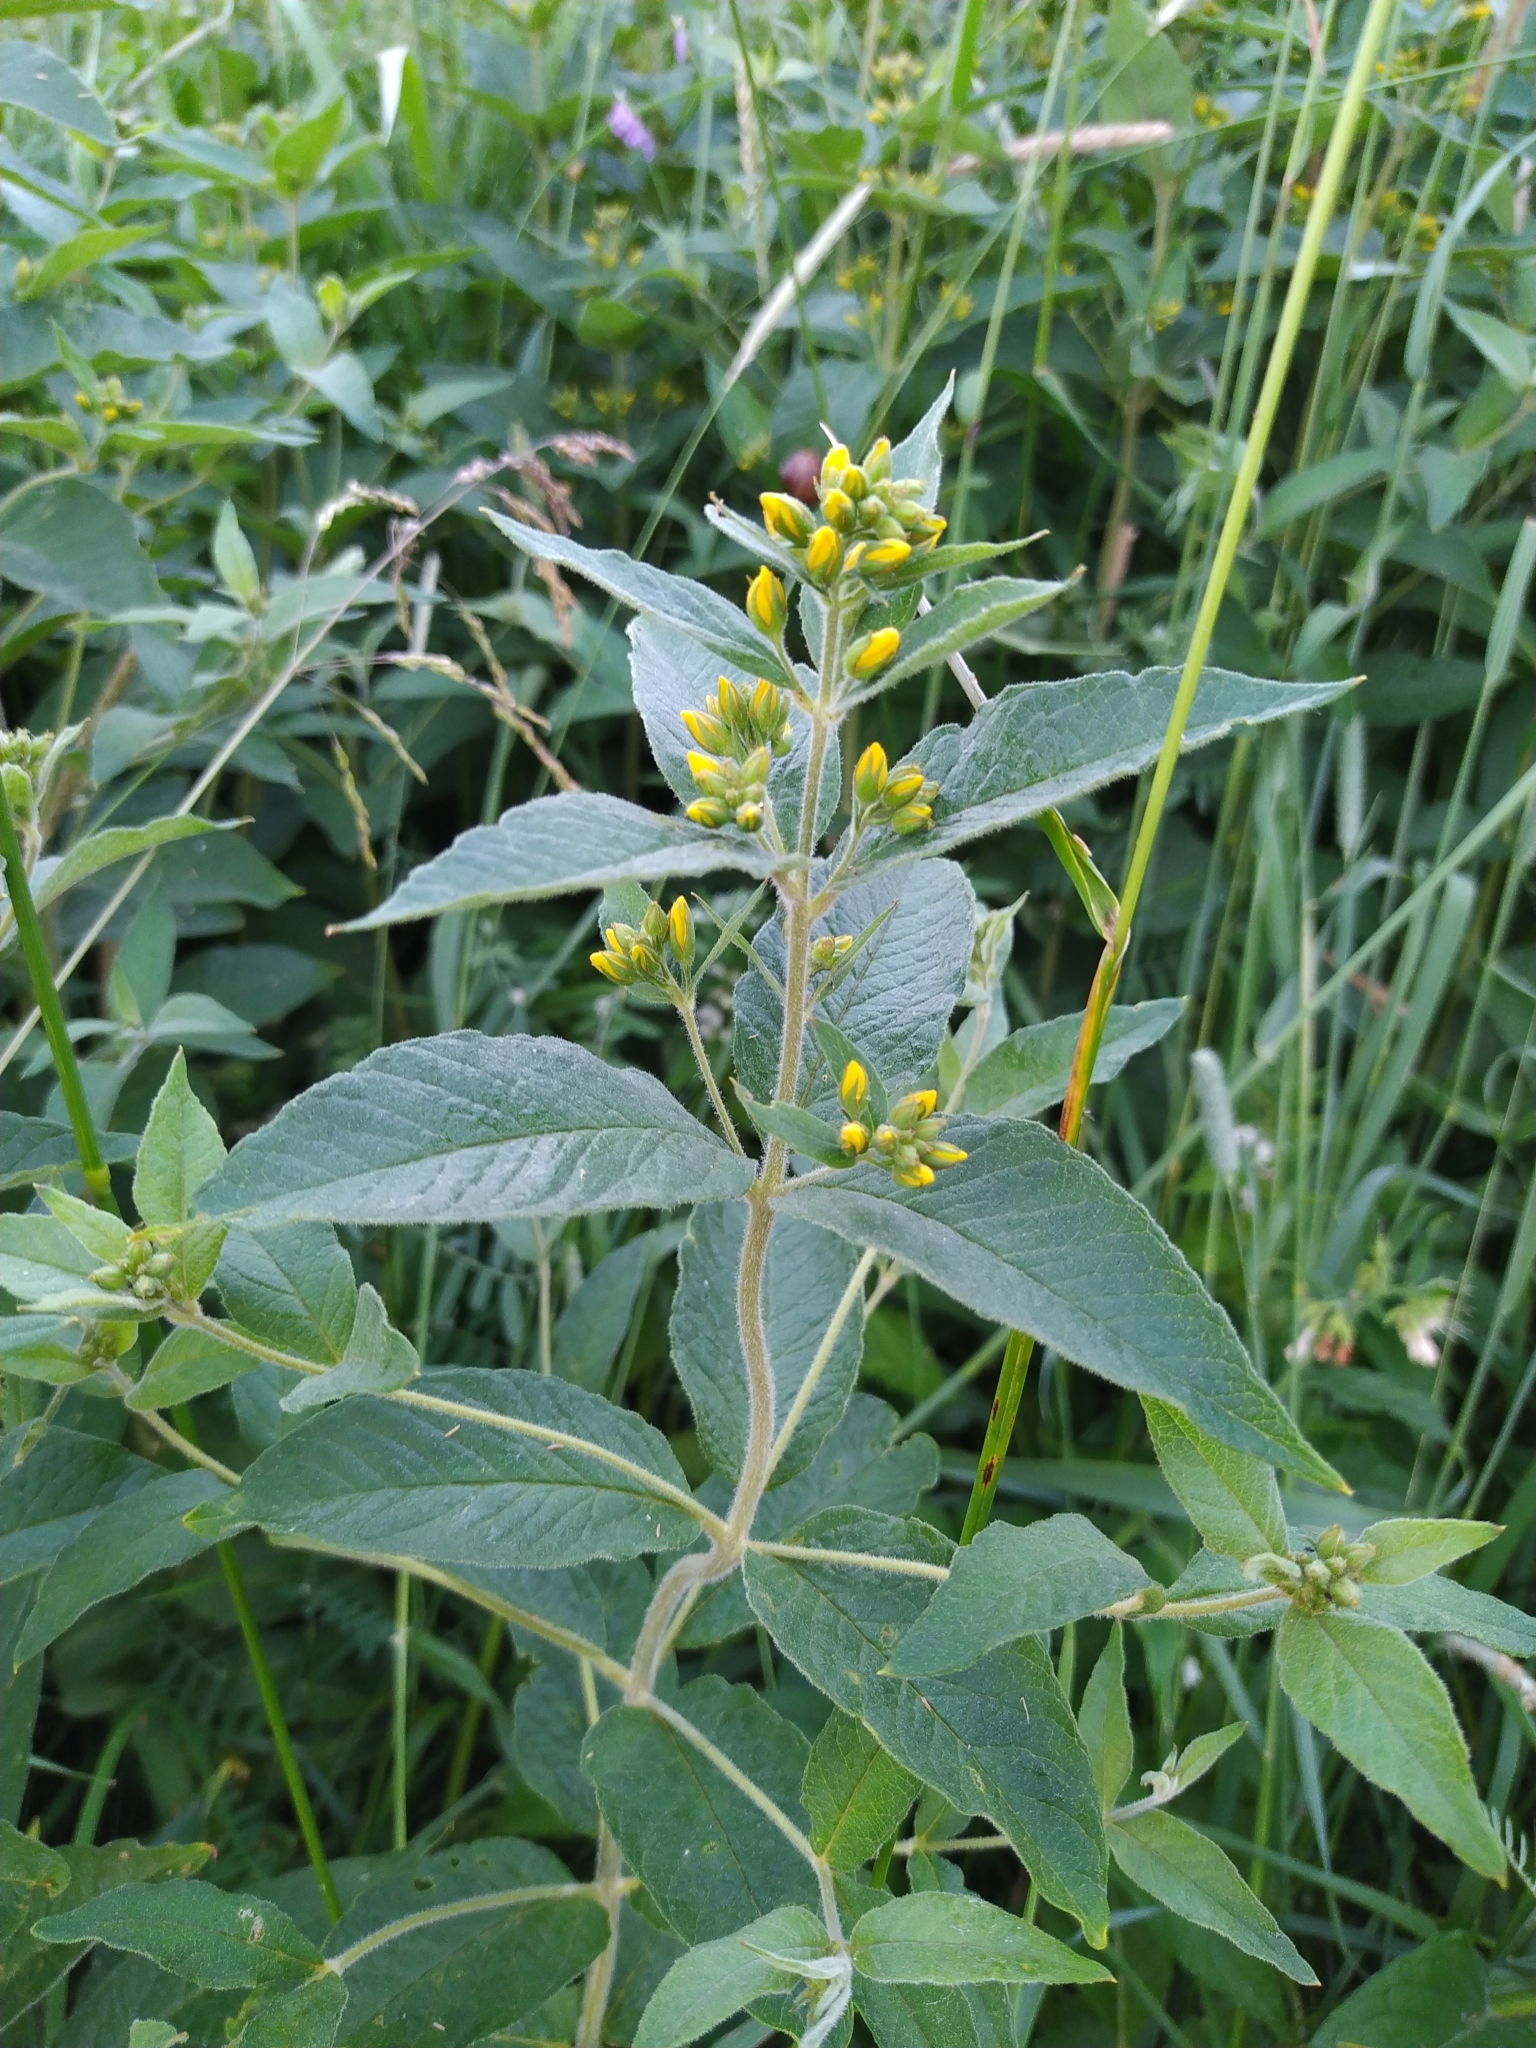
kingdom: Plantae
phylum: Tracheophyta
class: Magnoliopsida
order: Ericales
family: Primulaceae
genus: Lysimachia
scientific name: Lysimachia vulgaris
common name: Yellow loosestrife
